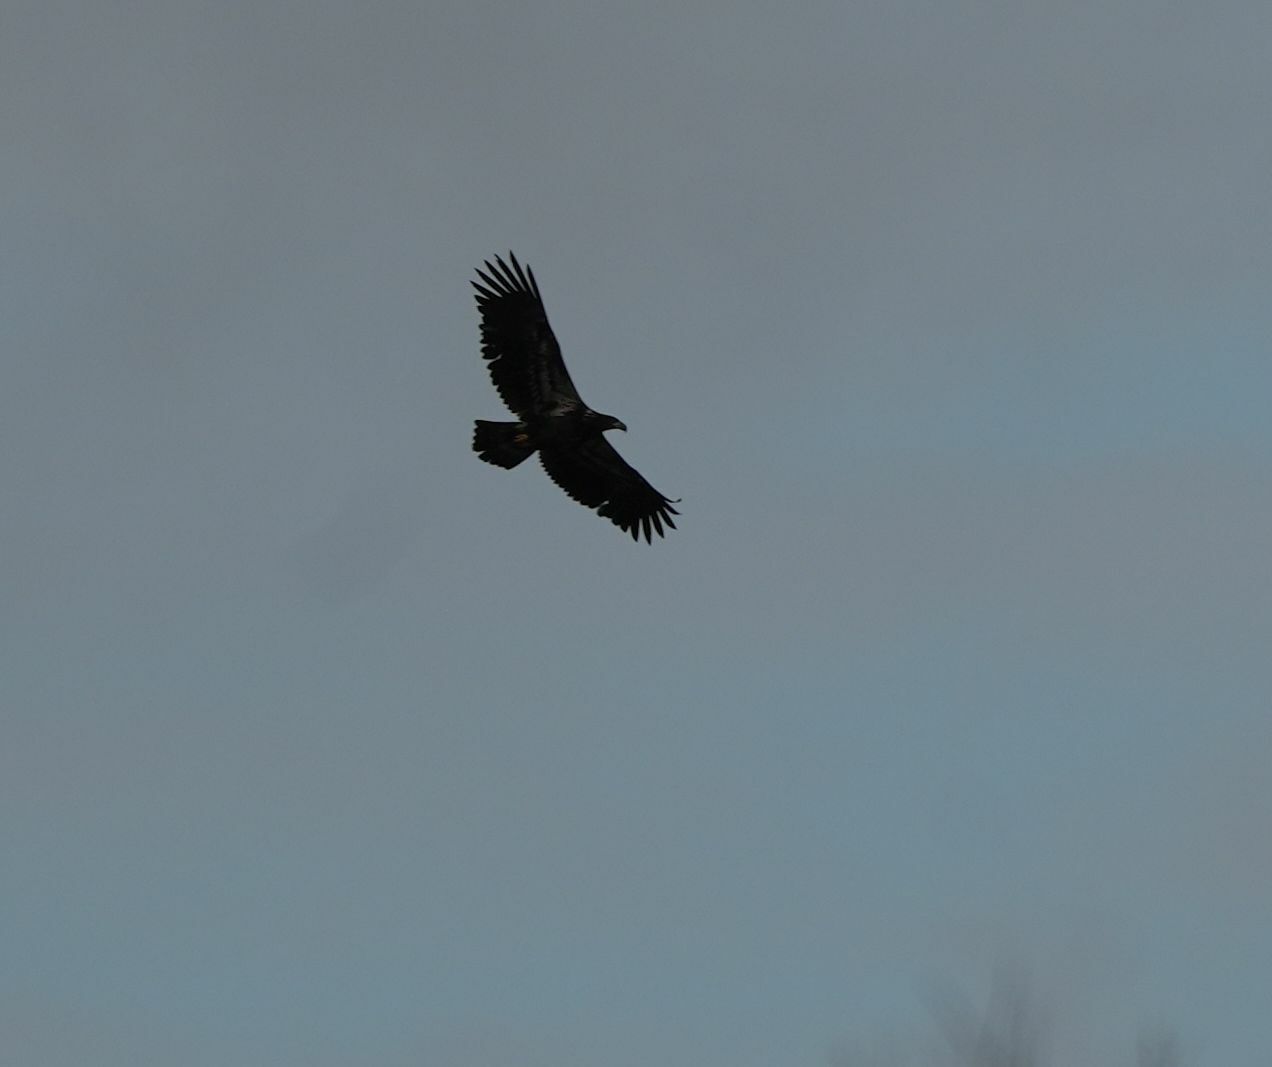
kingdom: Animalia
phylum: Chordata
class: Aves
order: Accipitriformes
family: Accipitridae
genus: Haliaeetus
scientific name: Haliaeetus leucocephalus
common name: Bald eagle
